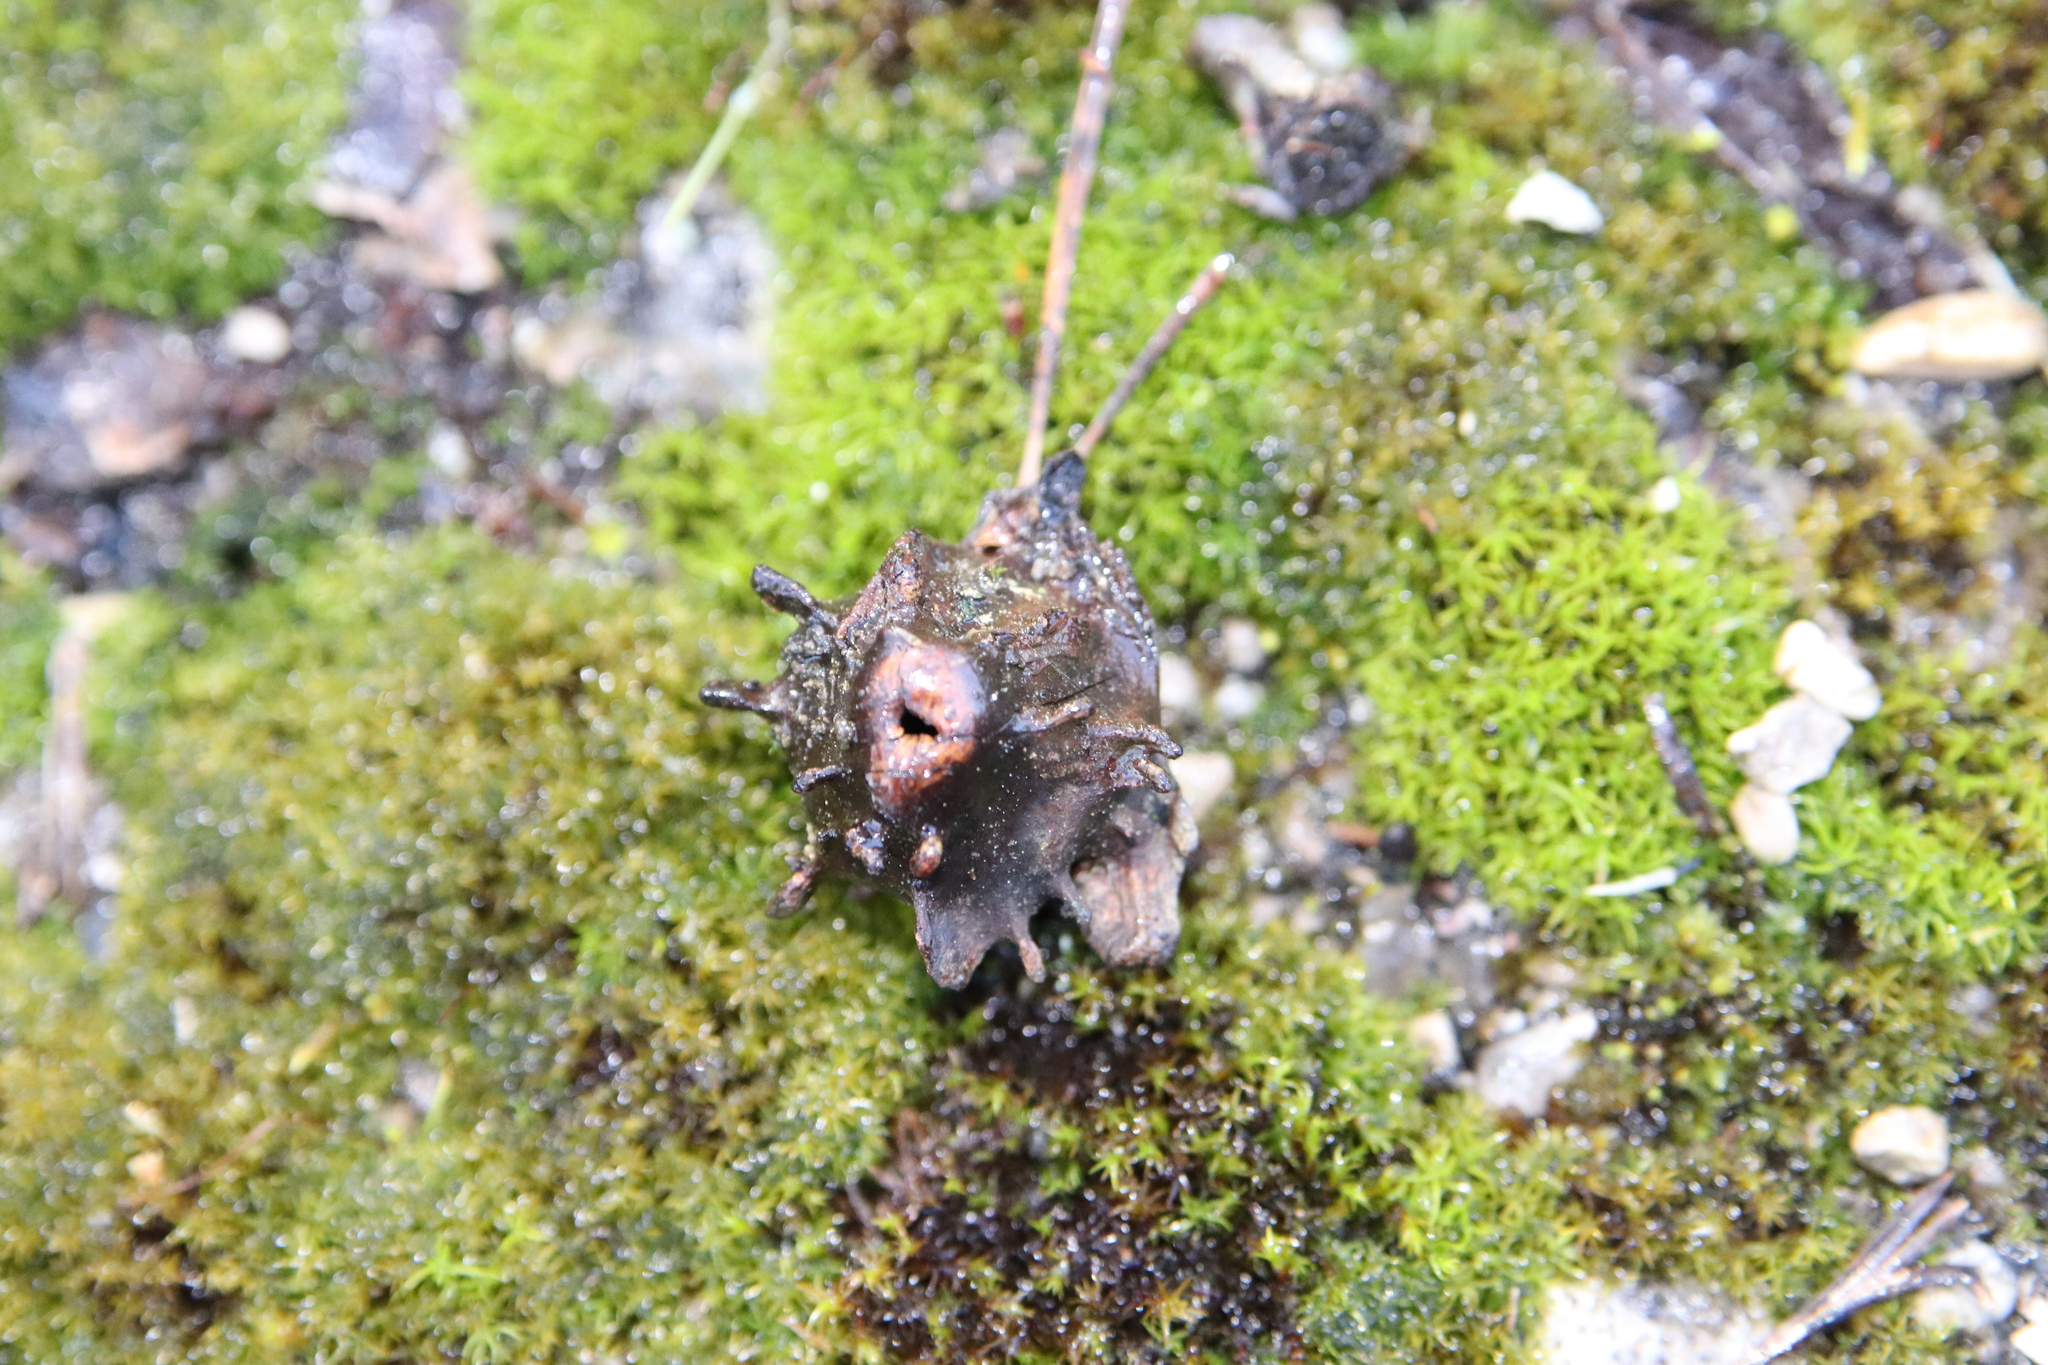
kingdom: Animalia
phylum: Arthropoda
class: Insecta
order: Hymenoptera
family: Cynipidae
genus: Andricus
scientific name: Andricus quercuscalicis
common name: Knopper gall
